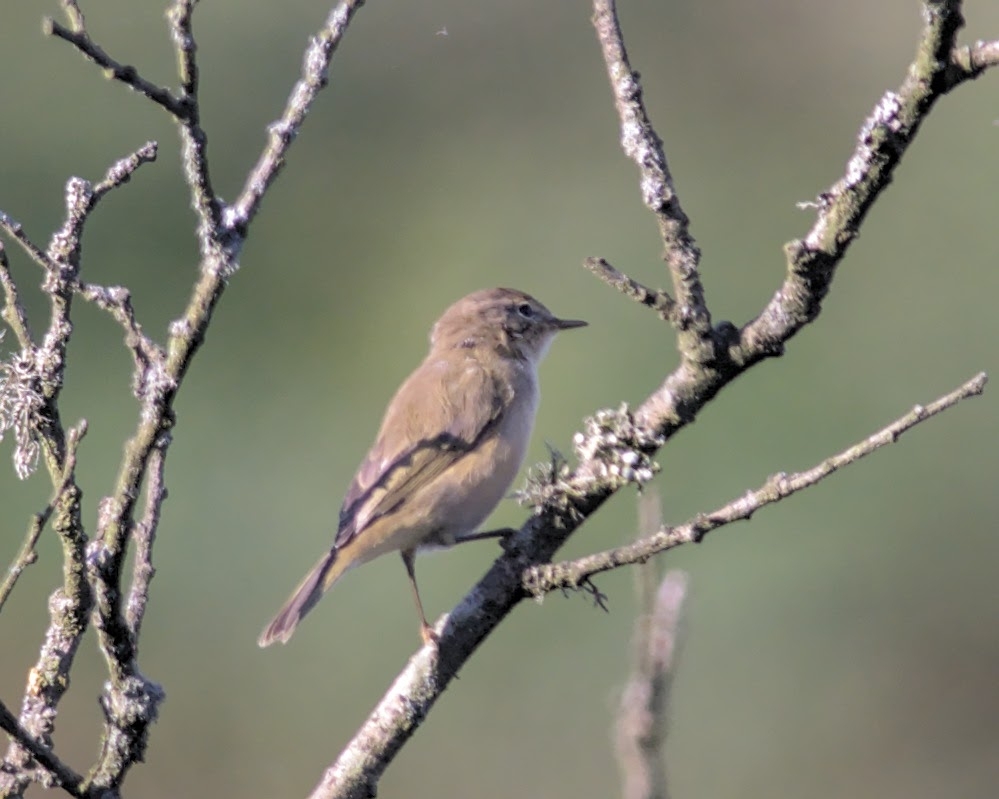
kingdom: Animalia
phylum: Chordata
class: Aves
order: Passeriformes
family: Phylloscopidae
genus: Phylloscopus
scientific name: Phylloscopus collybita
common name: Common chiffchaff
